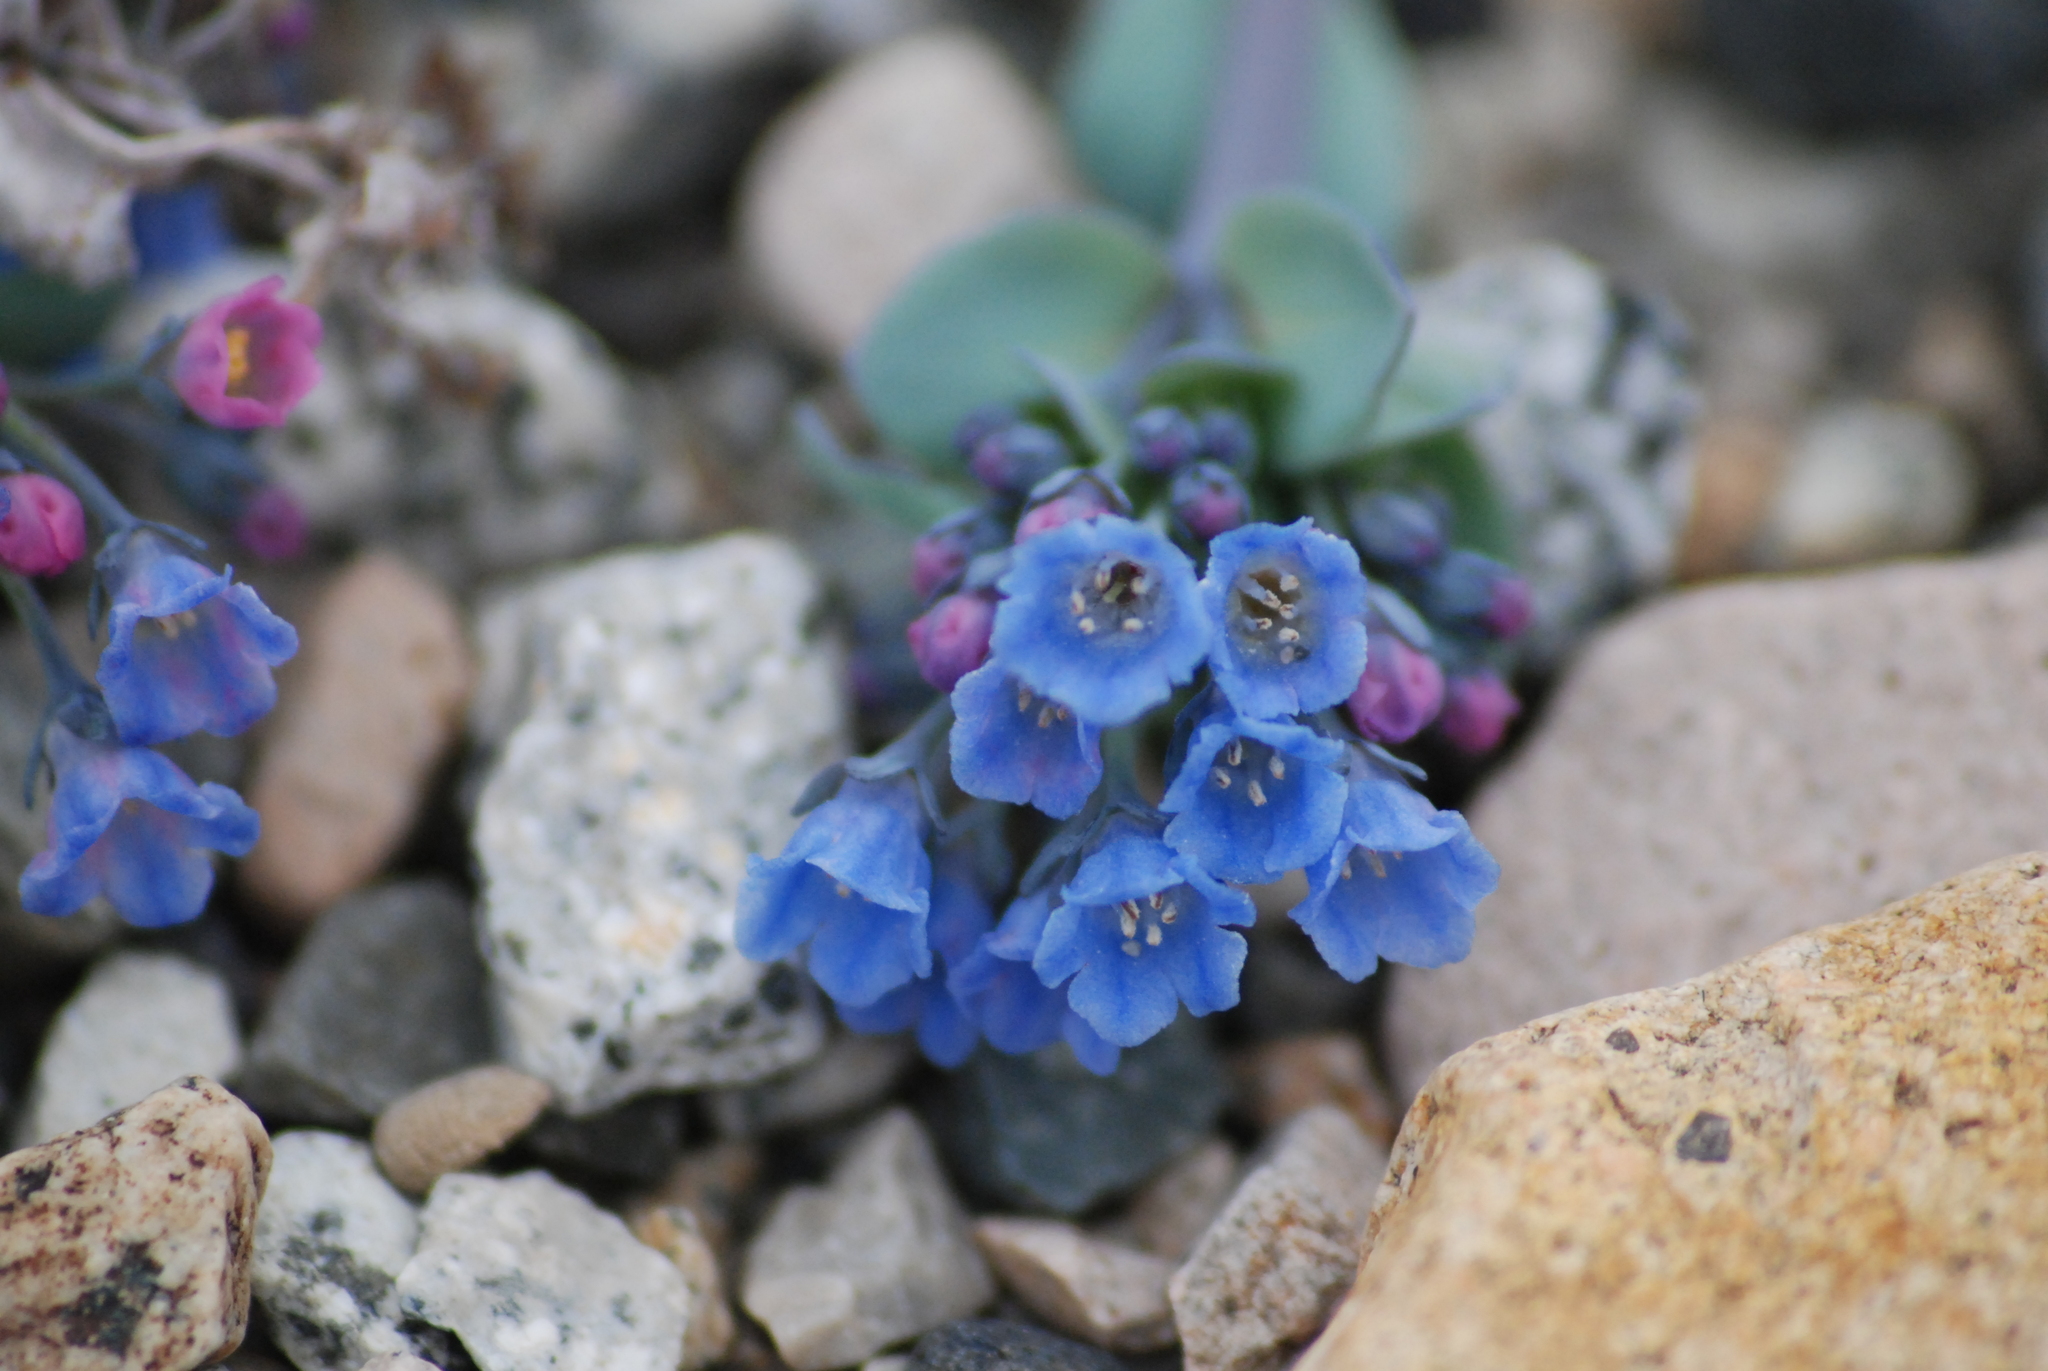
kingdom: Plantae
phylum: Tracheophyta
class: Magnoliopsida
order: Boraginales
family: Boraginaceae
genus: Mertensia
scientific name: Mertensia maritima
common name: Oysterplant
